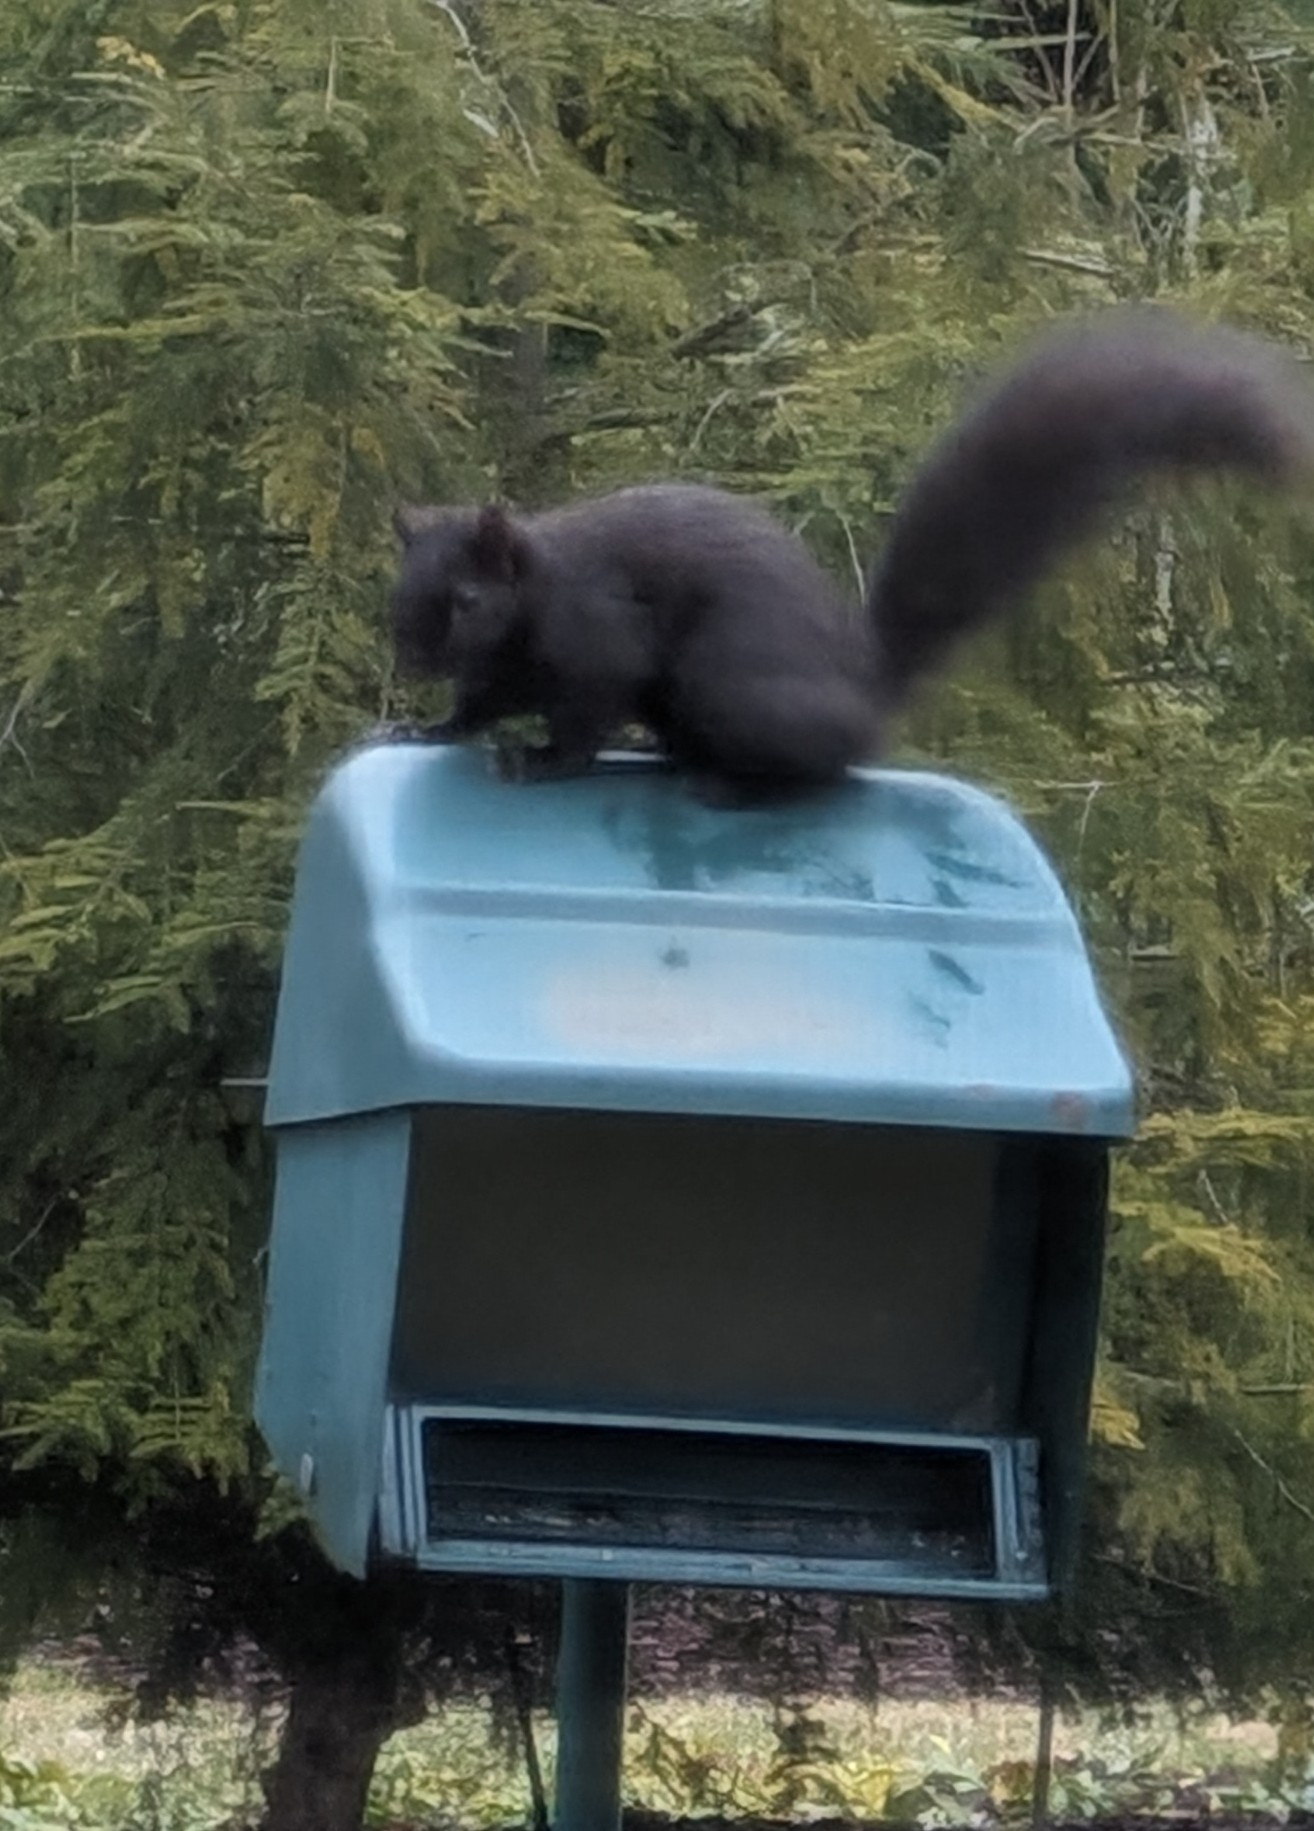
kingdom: Animalia
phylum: Chordata
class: Mammalia
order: Rodentia
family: Sciuridae
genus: Sciurus
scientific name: Sciurus carolinensis
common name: Eastern gray squirrel
